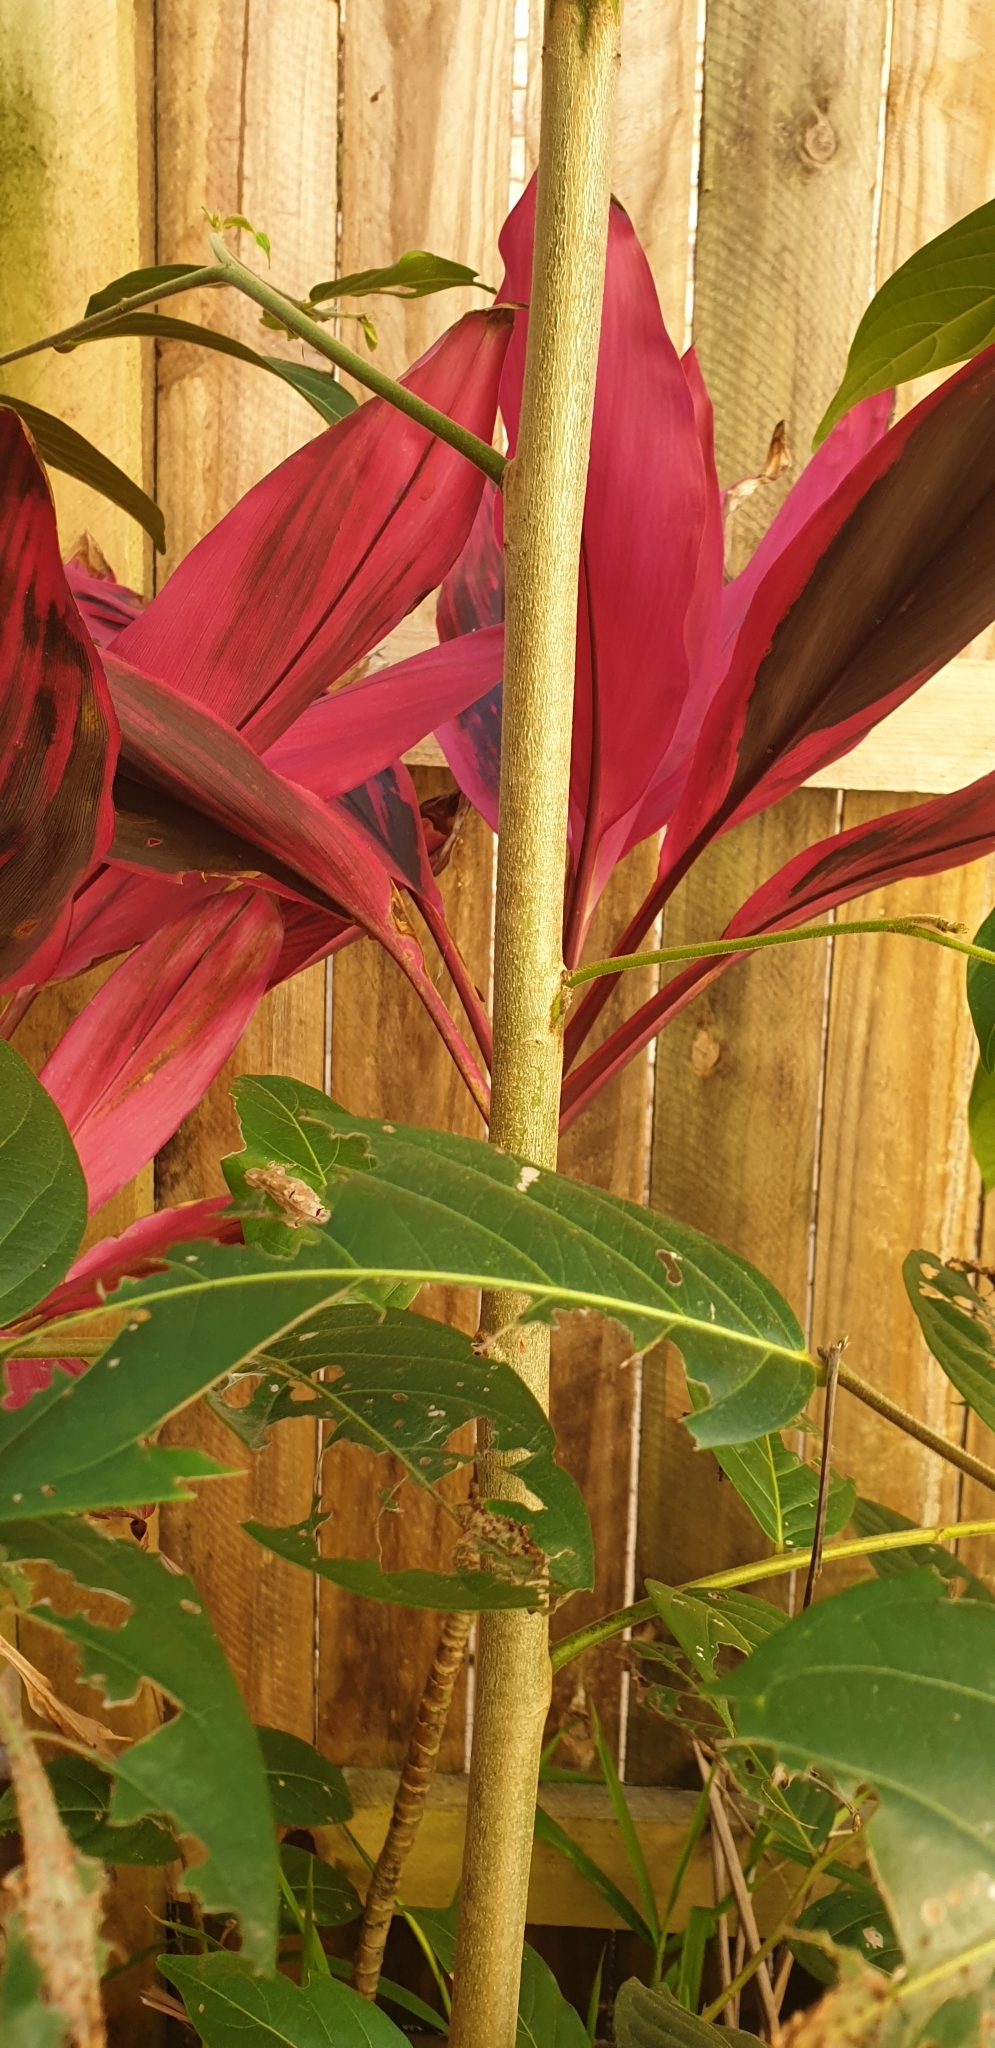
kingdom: Plantae
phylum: Tracheophyta
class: Magnoliopsida
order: Malpighiales
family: Phyllanthaceae
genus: Glochidion
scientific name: Glochidion zeylanicum
